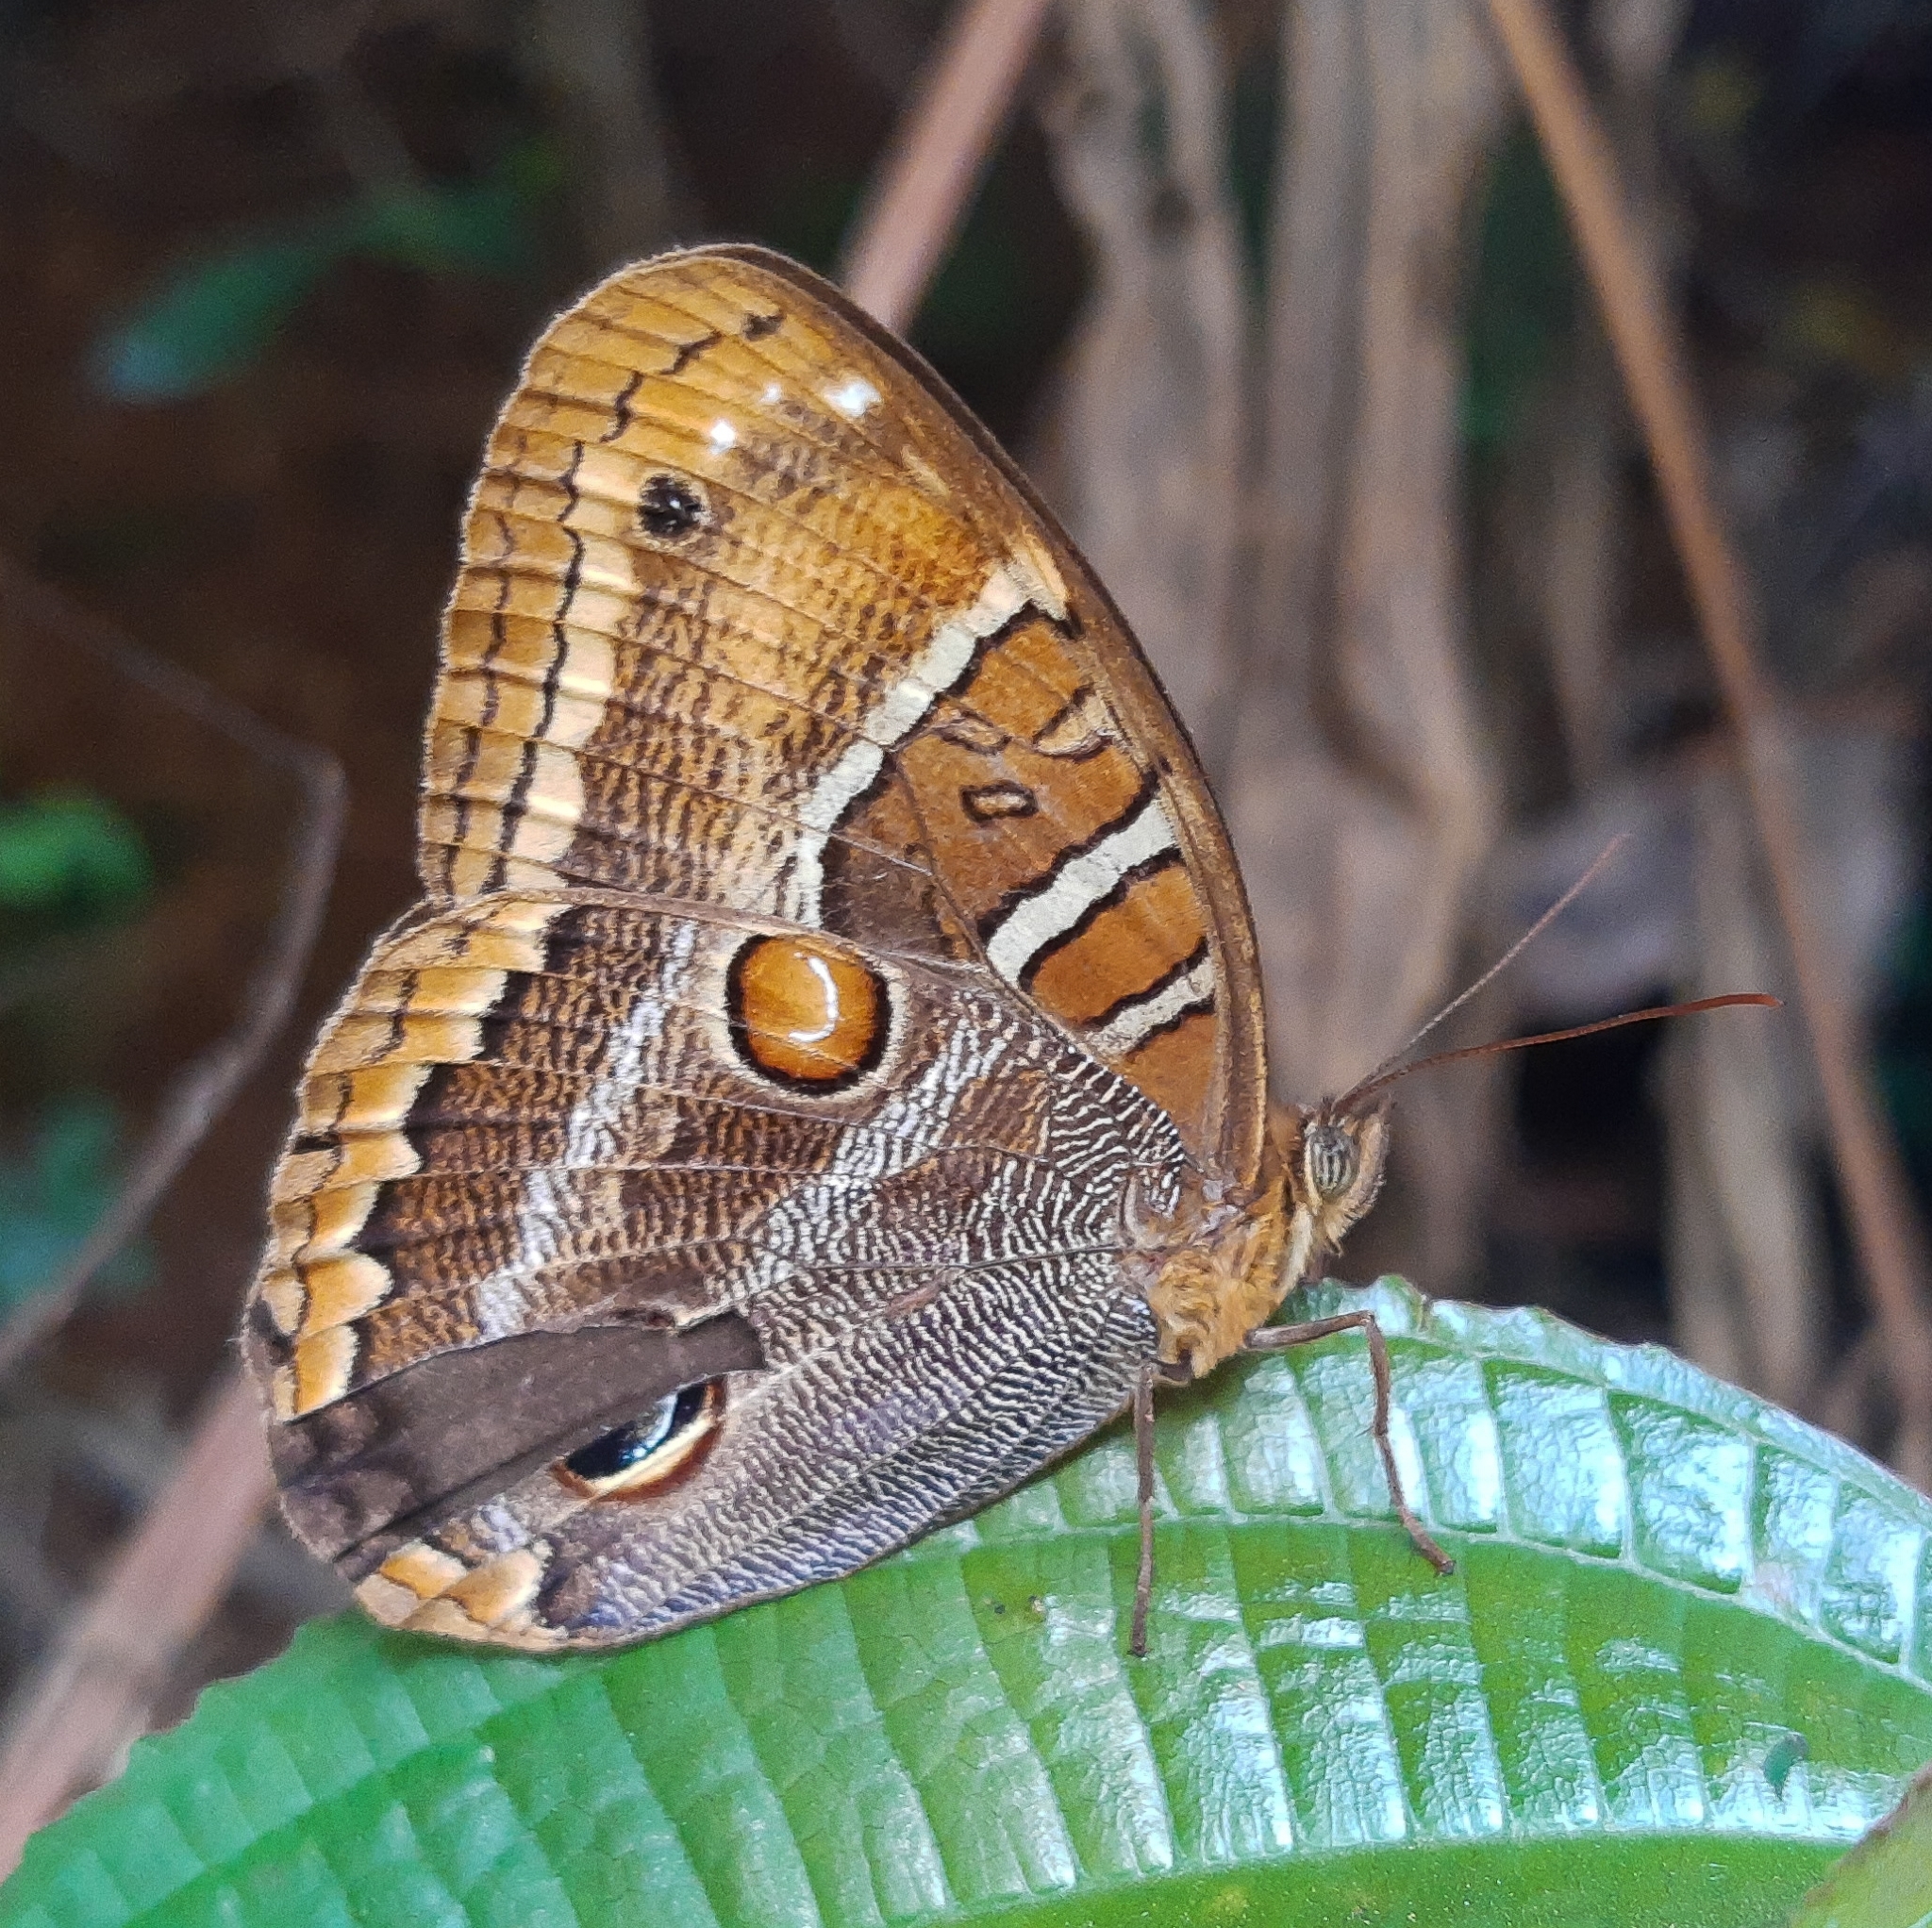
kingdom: Animalia
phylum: Arthropoda
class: Insecta
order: Lepidoptera
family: Nymphalidae
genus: Opoptera
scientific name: Opoptera syme
